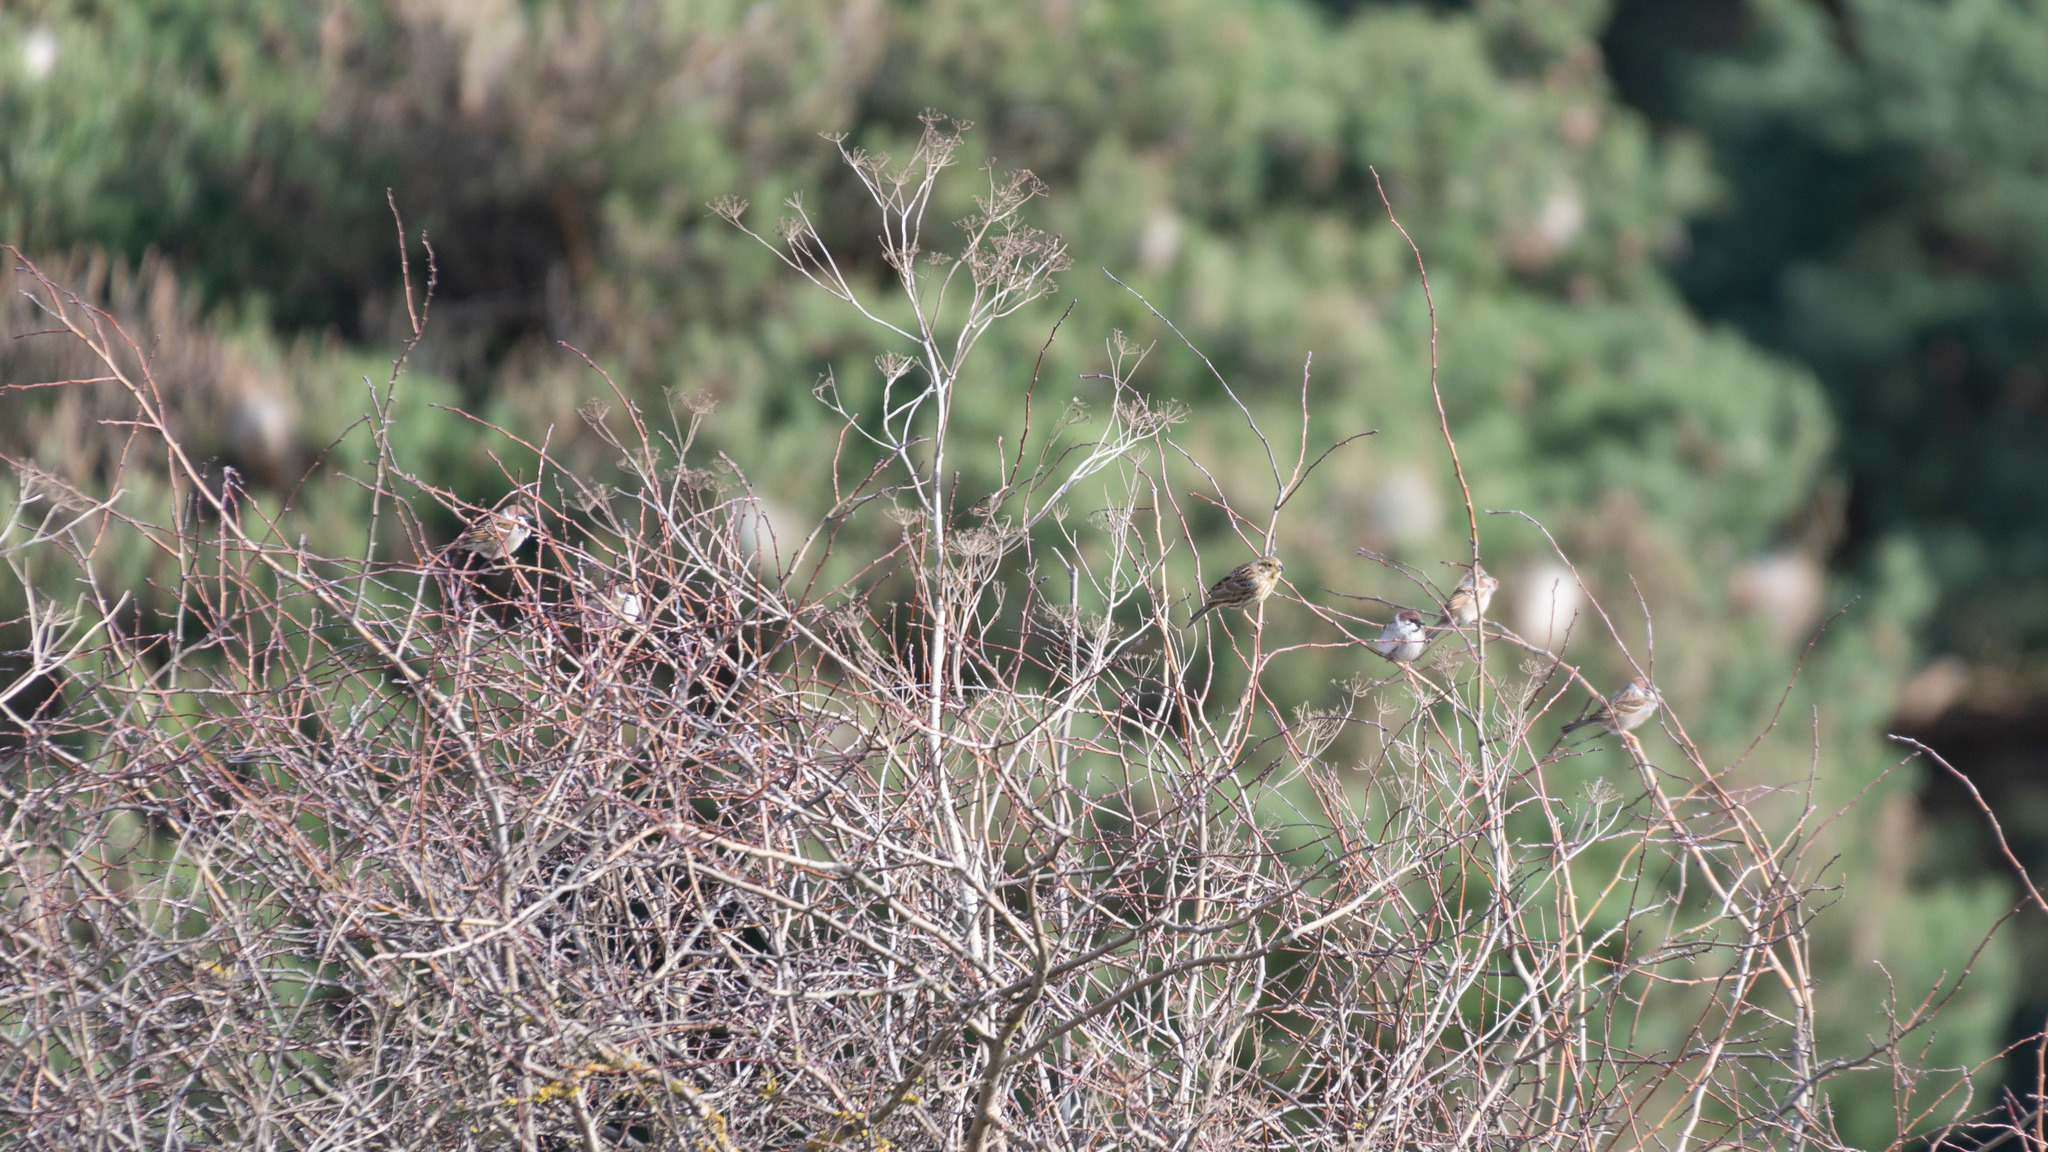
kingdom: Animalia
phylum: Chordata
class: Aves
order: Passeriformes
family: Passeridae
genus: Passer
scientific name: Passer montanus
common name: Eurasian tree sparrow
